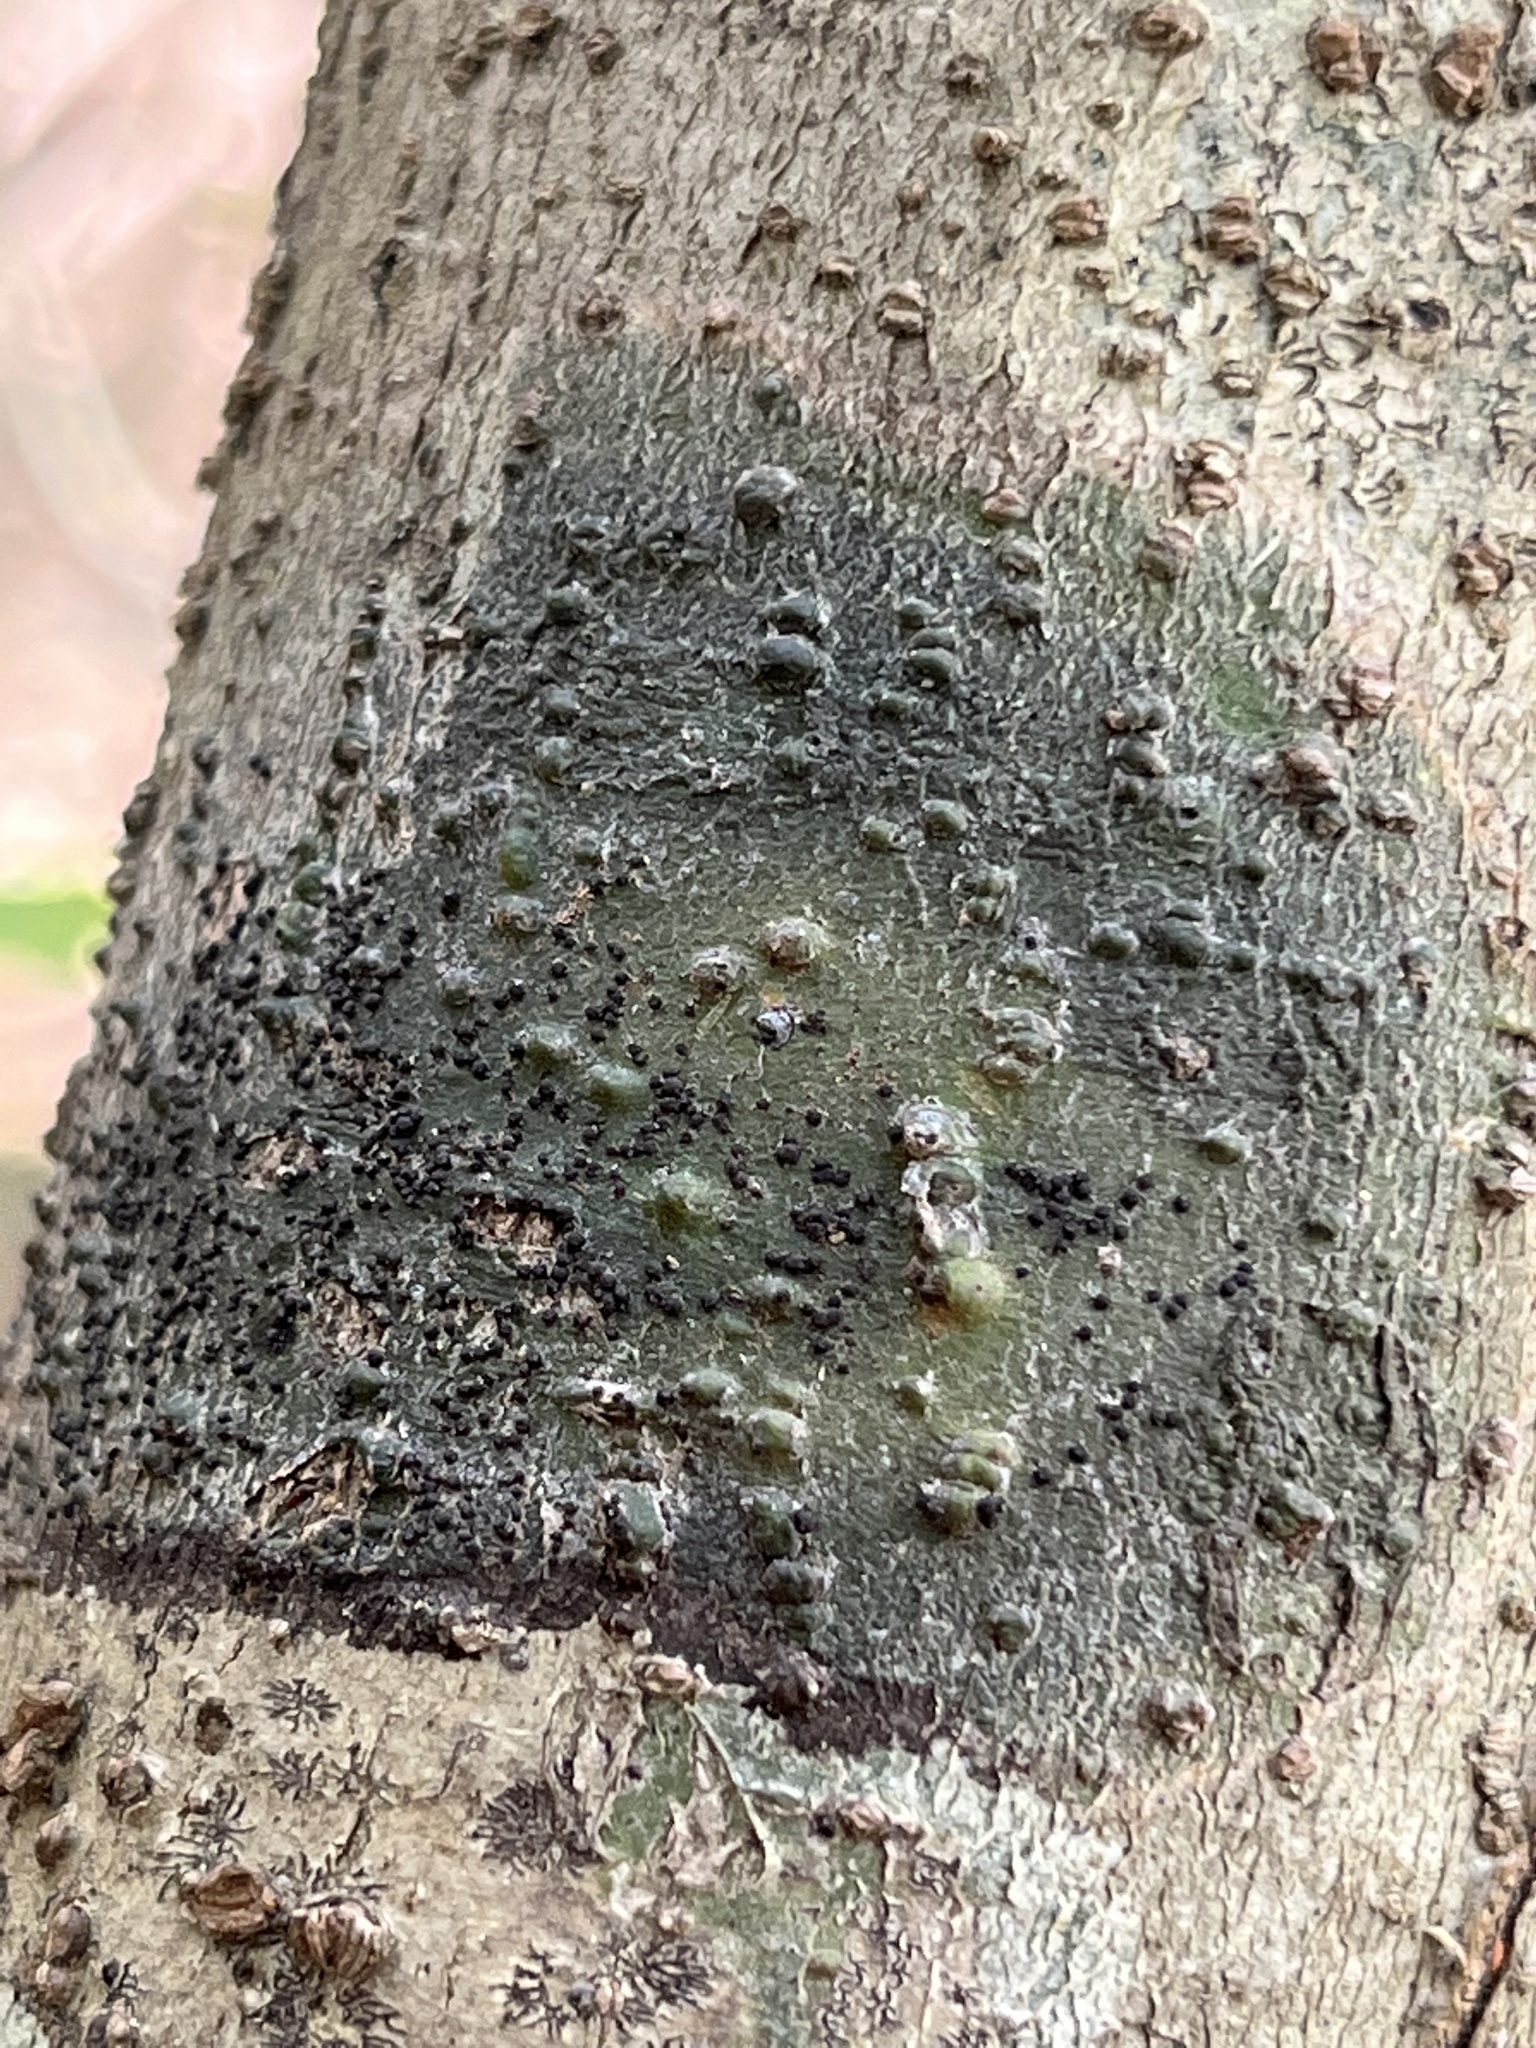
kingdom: Fungi
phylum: Ascomycota
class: Dothideomycetes
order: Trypetheliales
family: Trypetheliaceae
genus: Viridothelium
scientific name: Viridothelium virens
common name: Speckled blister lichen
